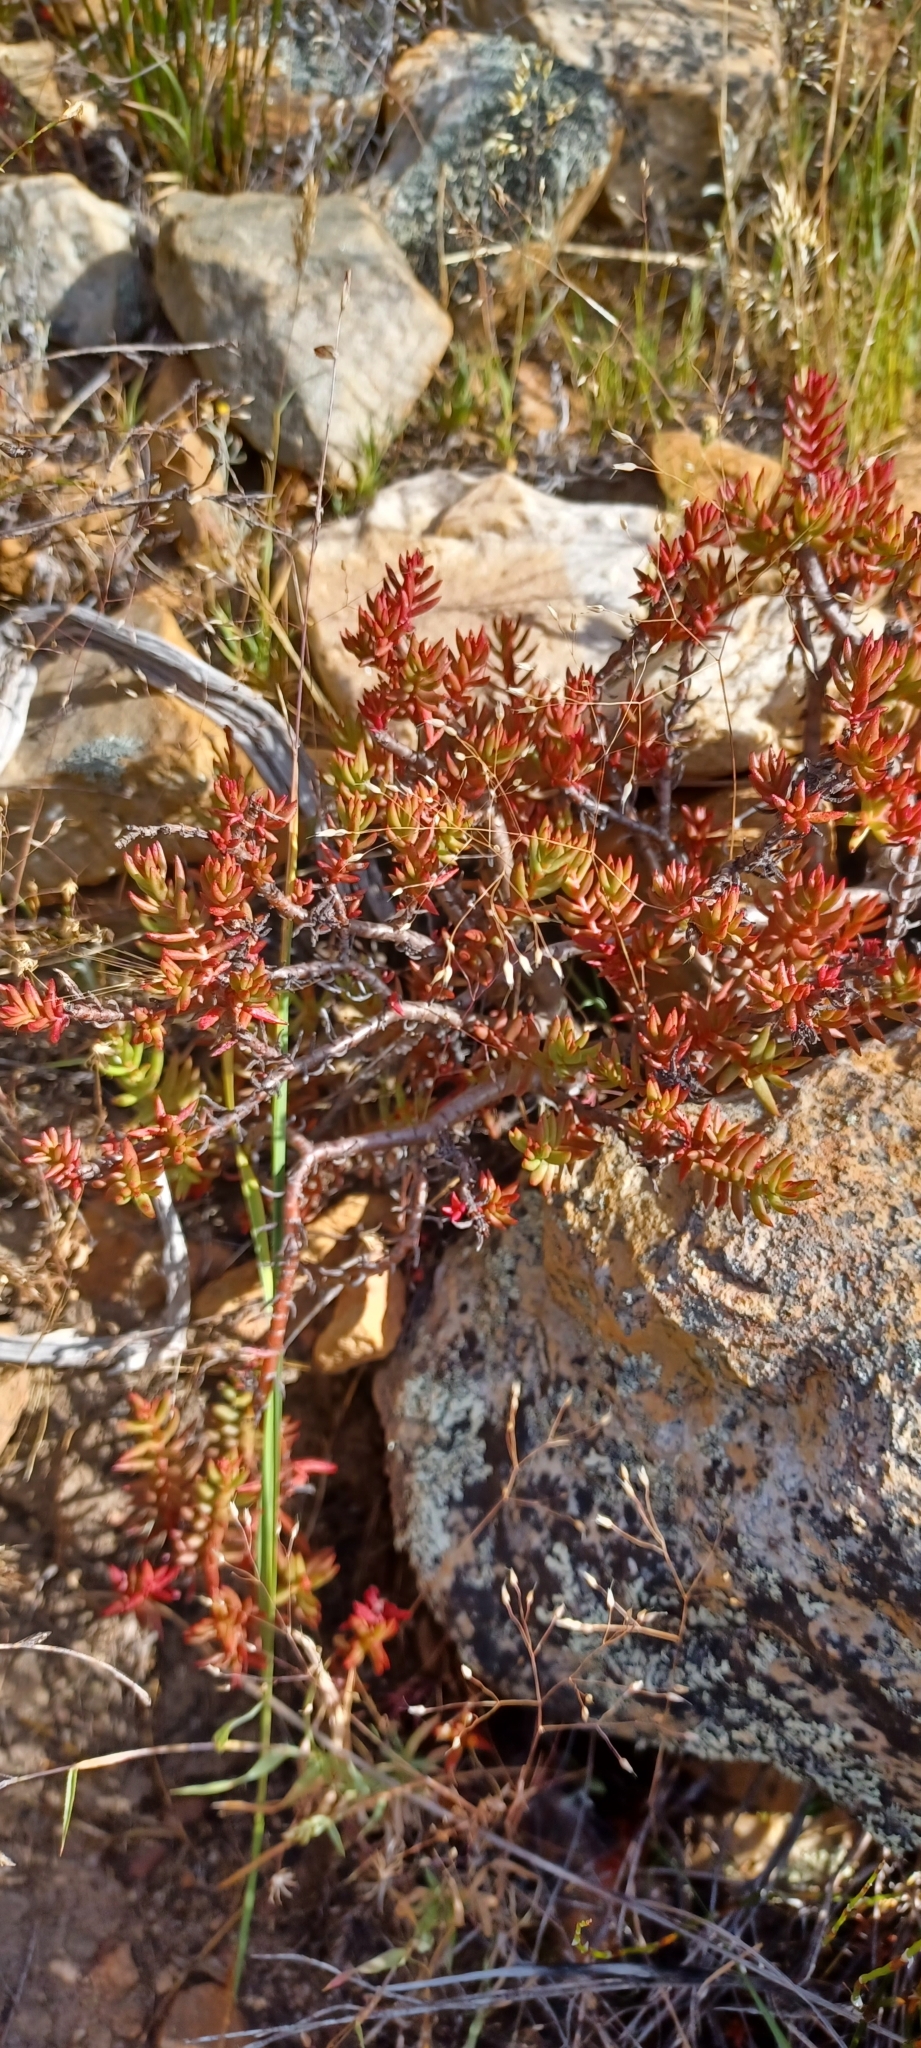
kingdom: Plantae
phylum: Tracheophyta
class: Magnoliopsida
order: Saxifragales
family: Crassulaceae
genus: Crassula
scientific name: Crassula tetragona
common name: Pygmyweed
